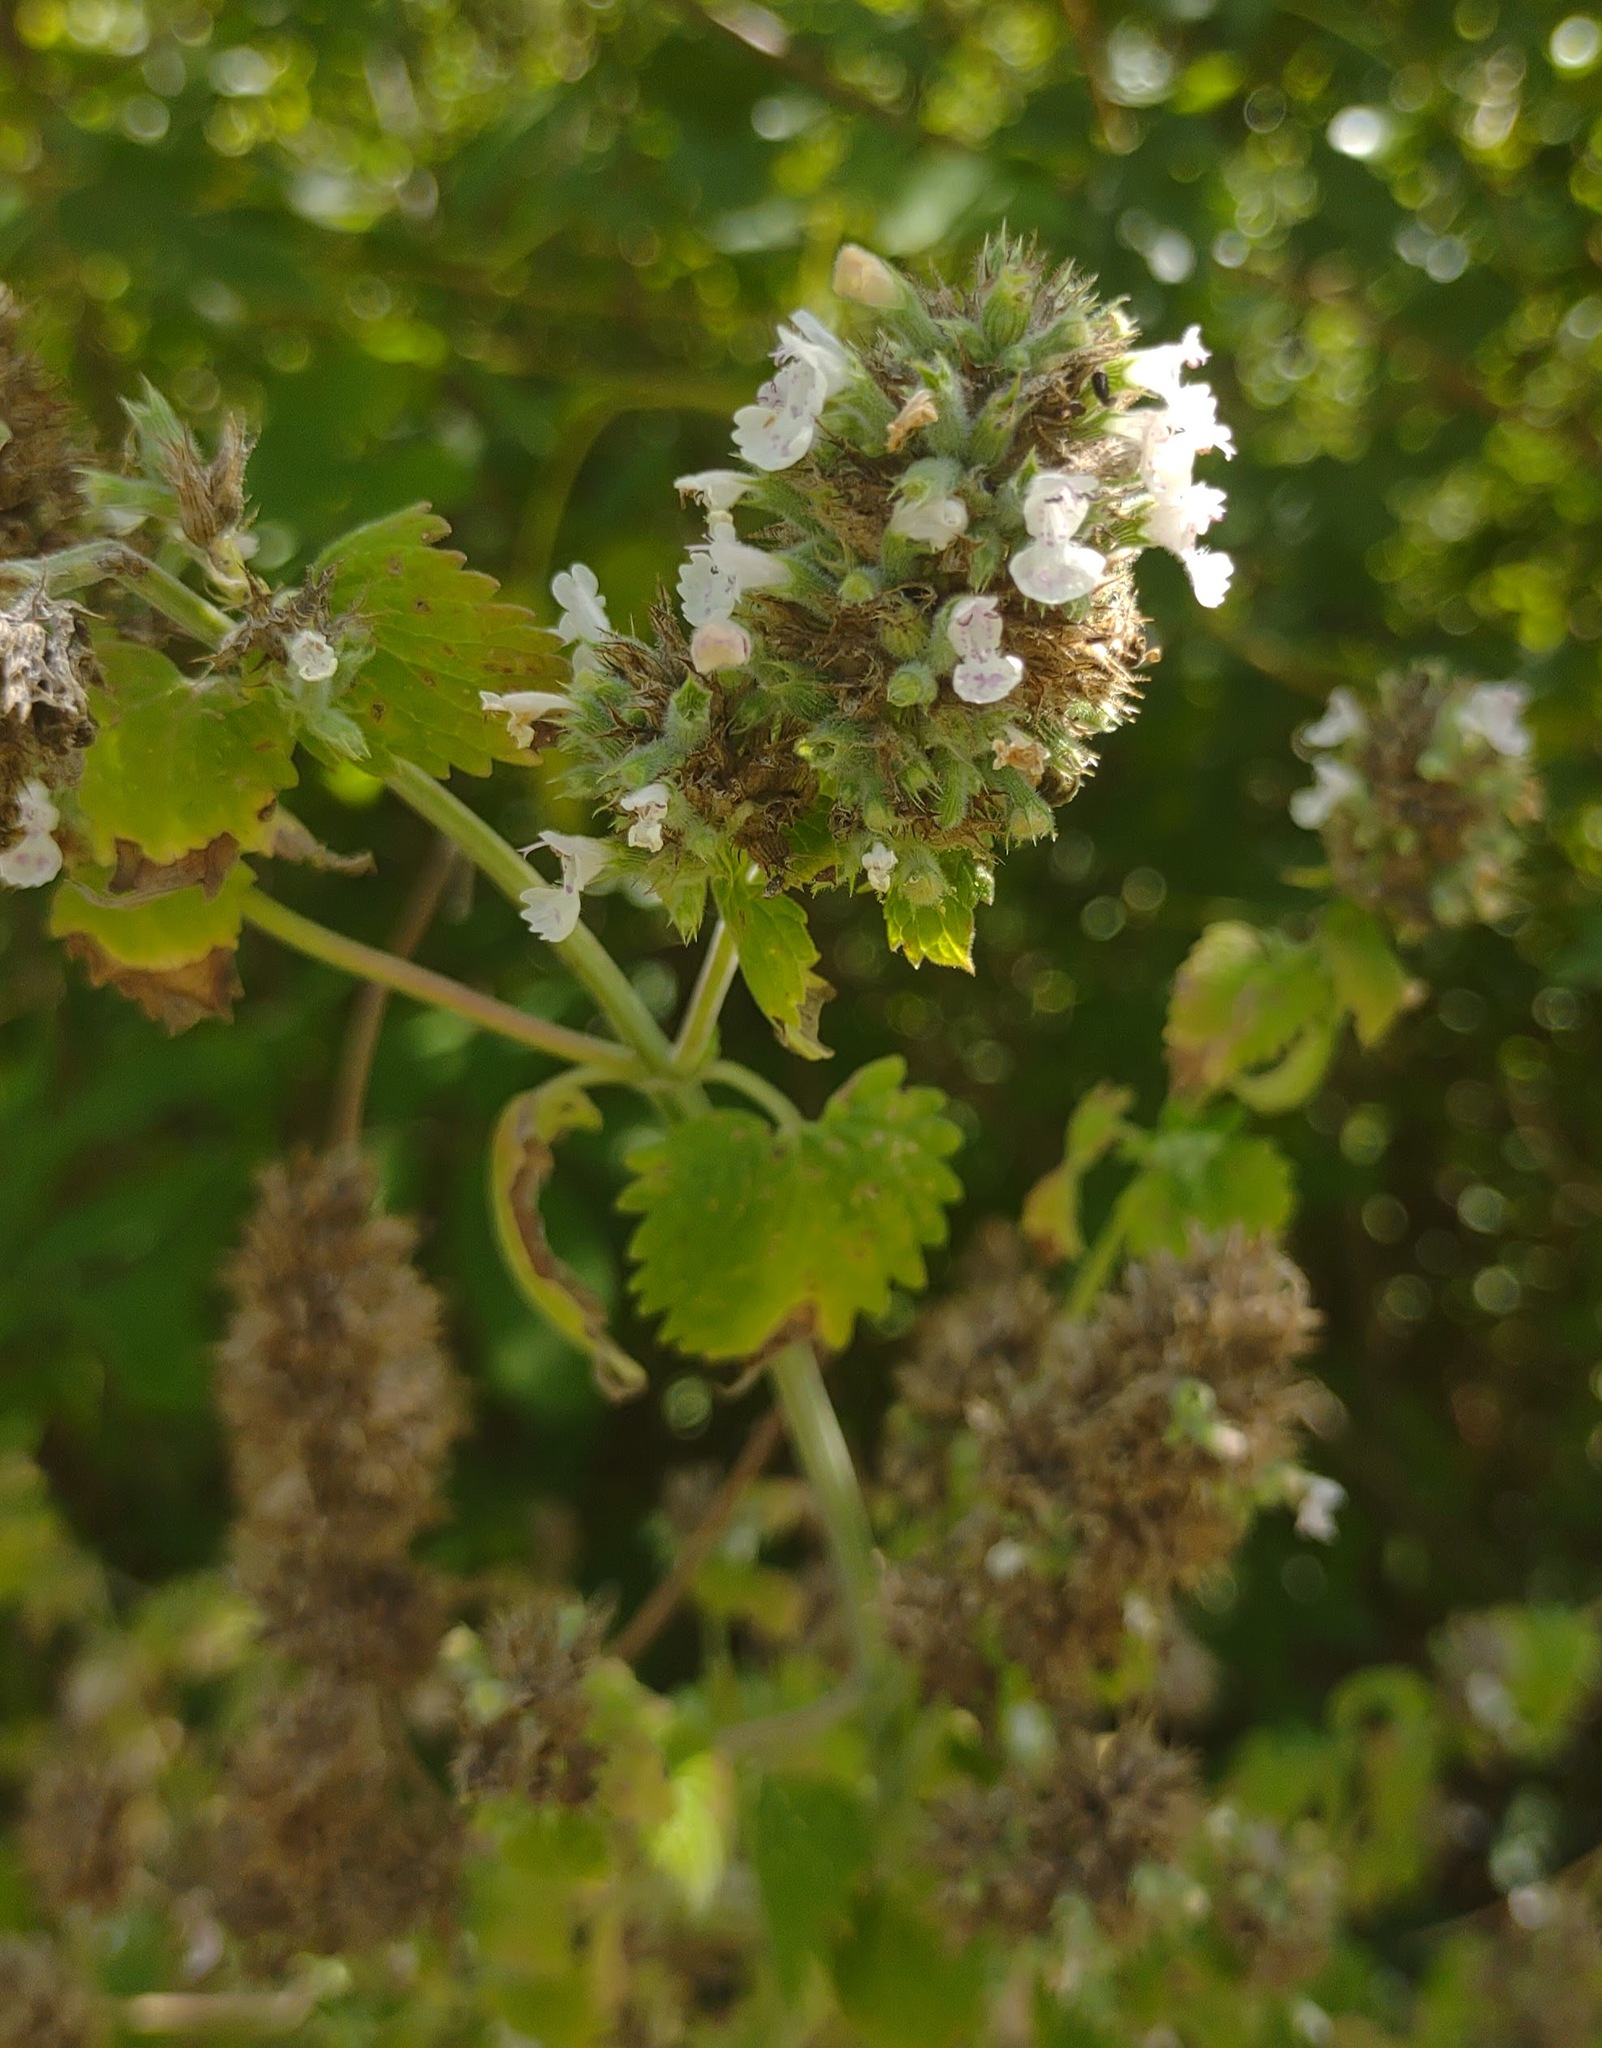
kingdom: Plantae
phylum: Tracheophyta
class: Magnoliopsida
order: Lamiales
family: Lamiaceae
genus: Nepeta
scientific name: Nepeta cataria
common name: Catnip
